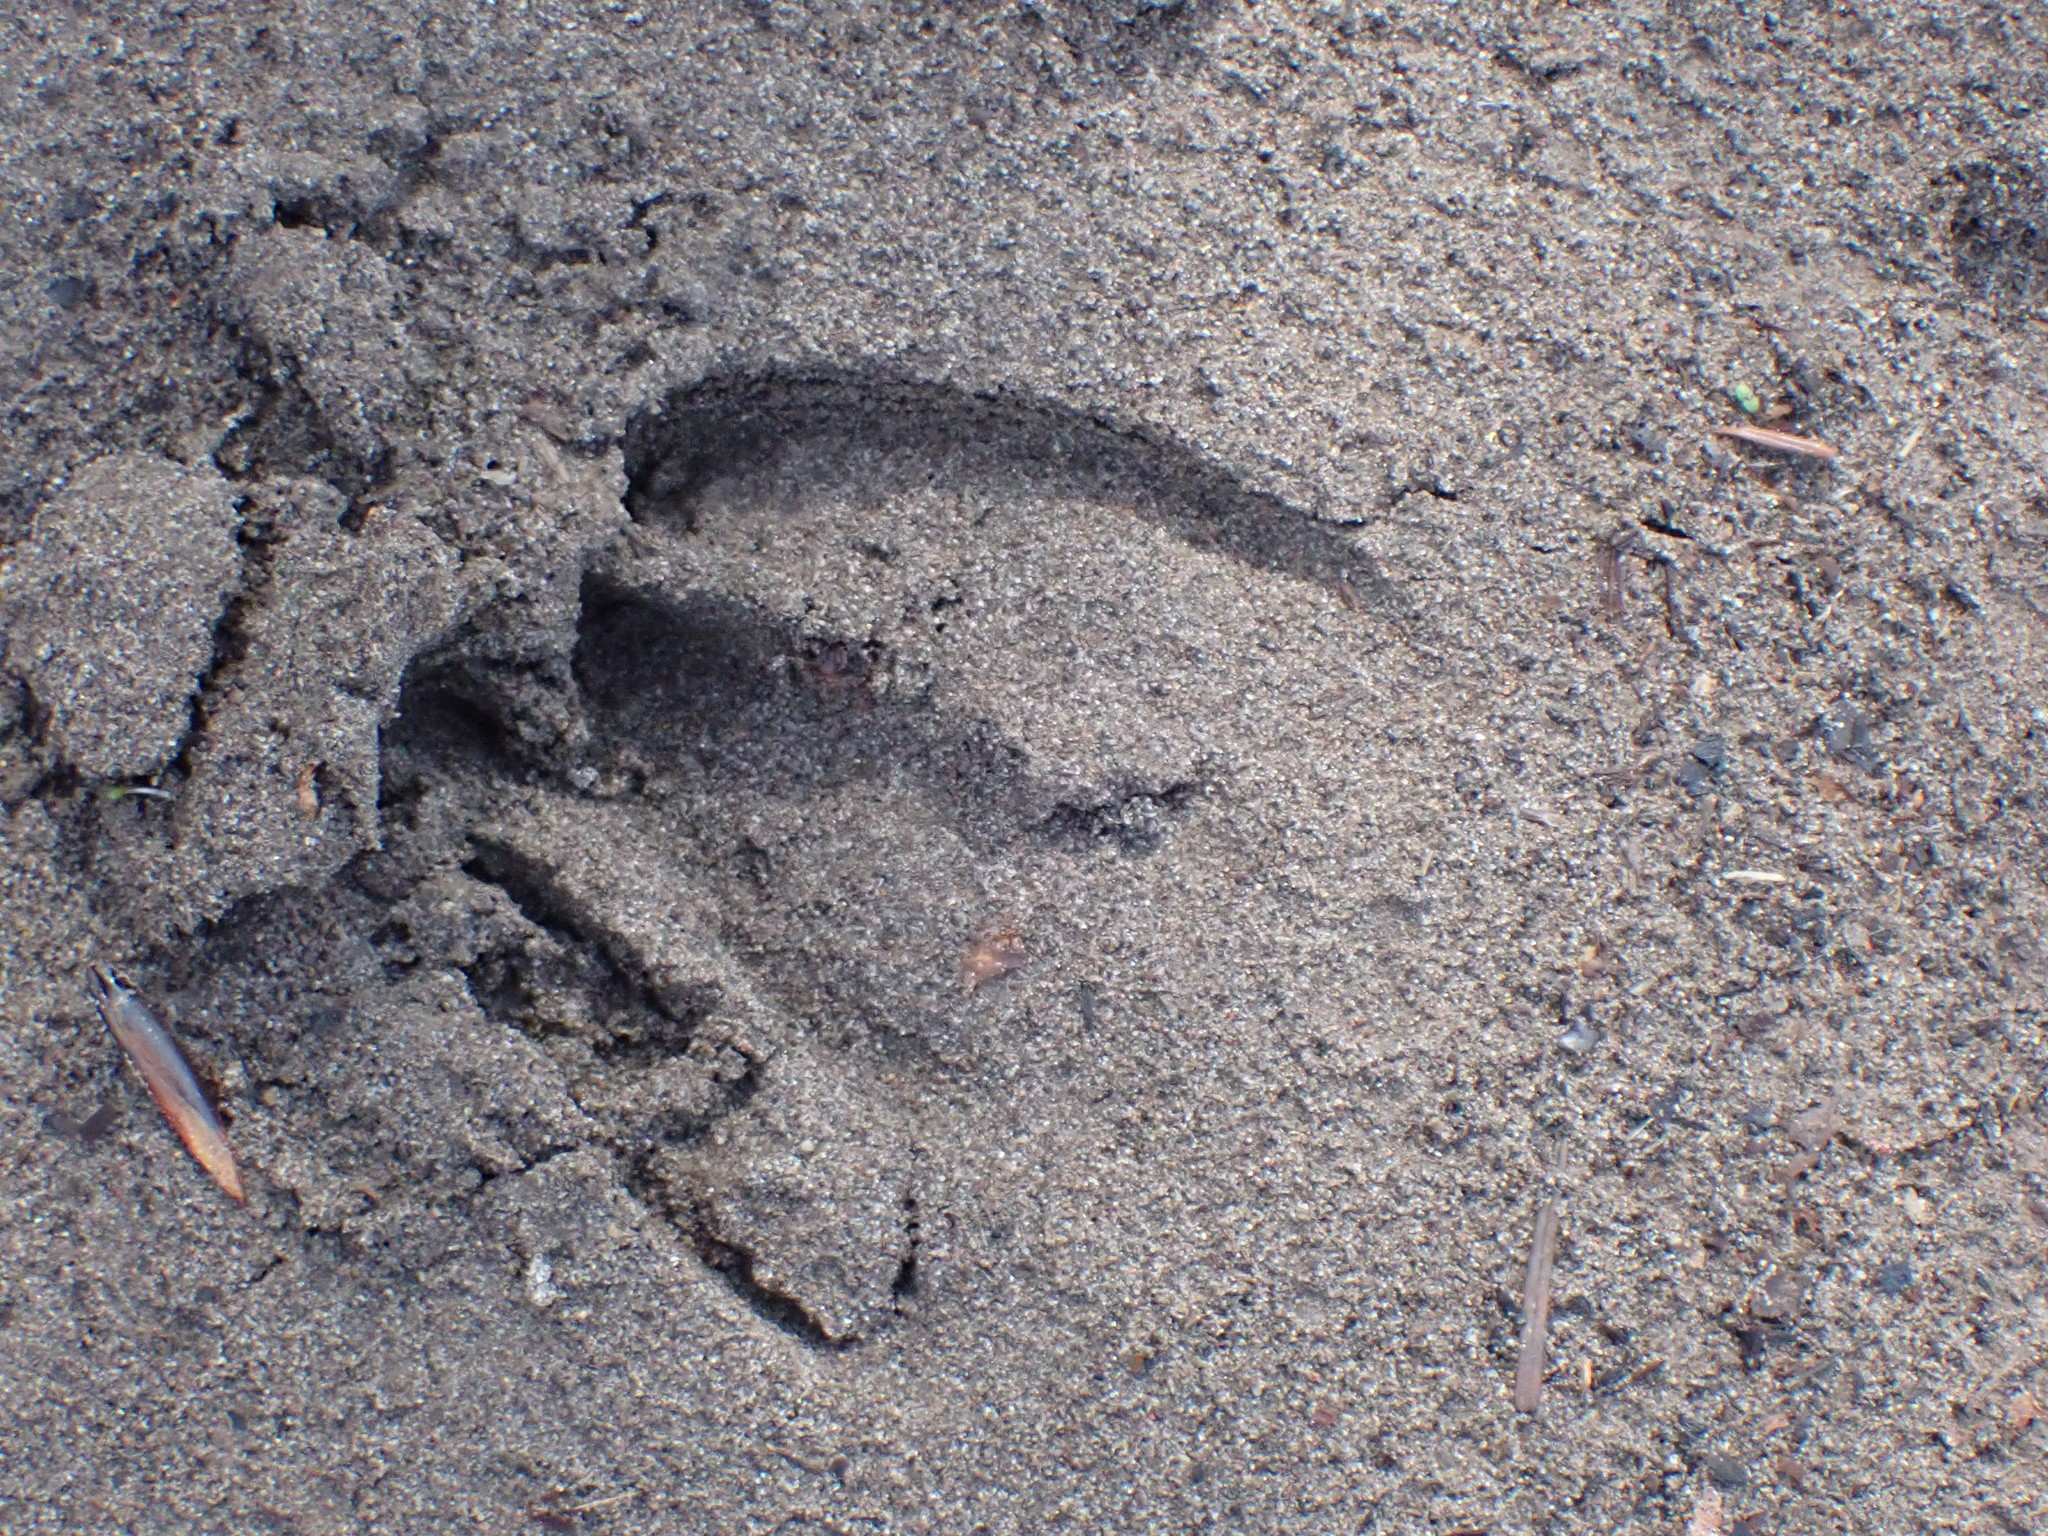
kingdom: Animalia
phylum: Chordata
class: Mammalia
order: Artiodactyla
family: Cervidae
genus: Odocoileus
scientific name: Odocoileus hemionus
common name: Mule deer
